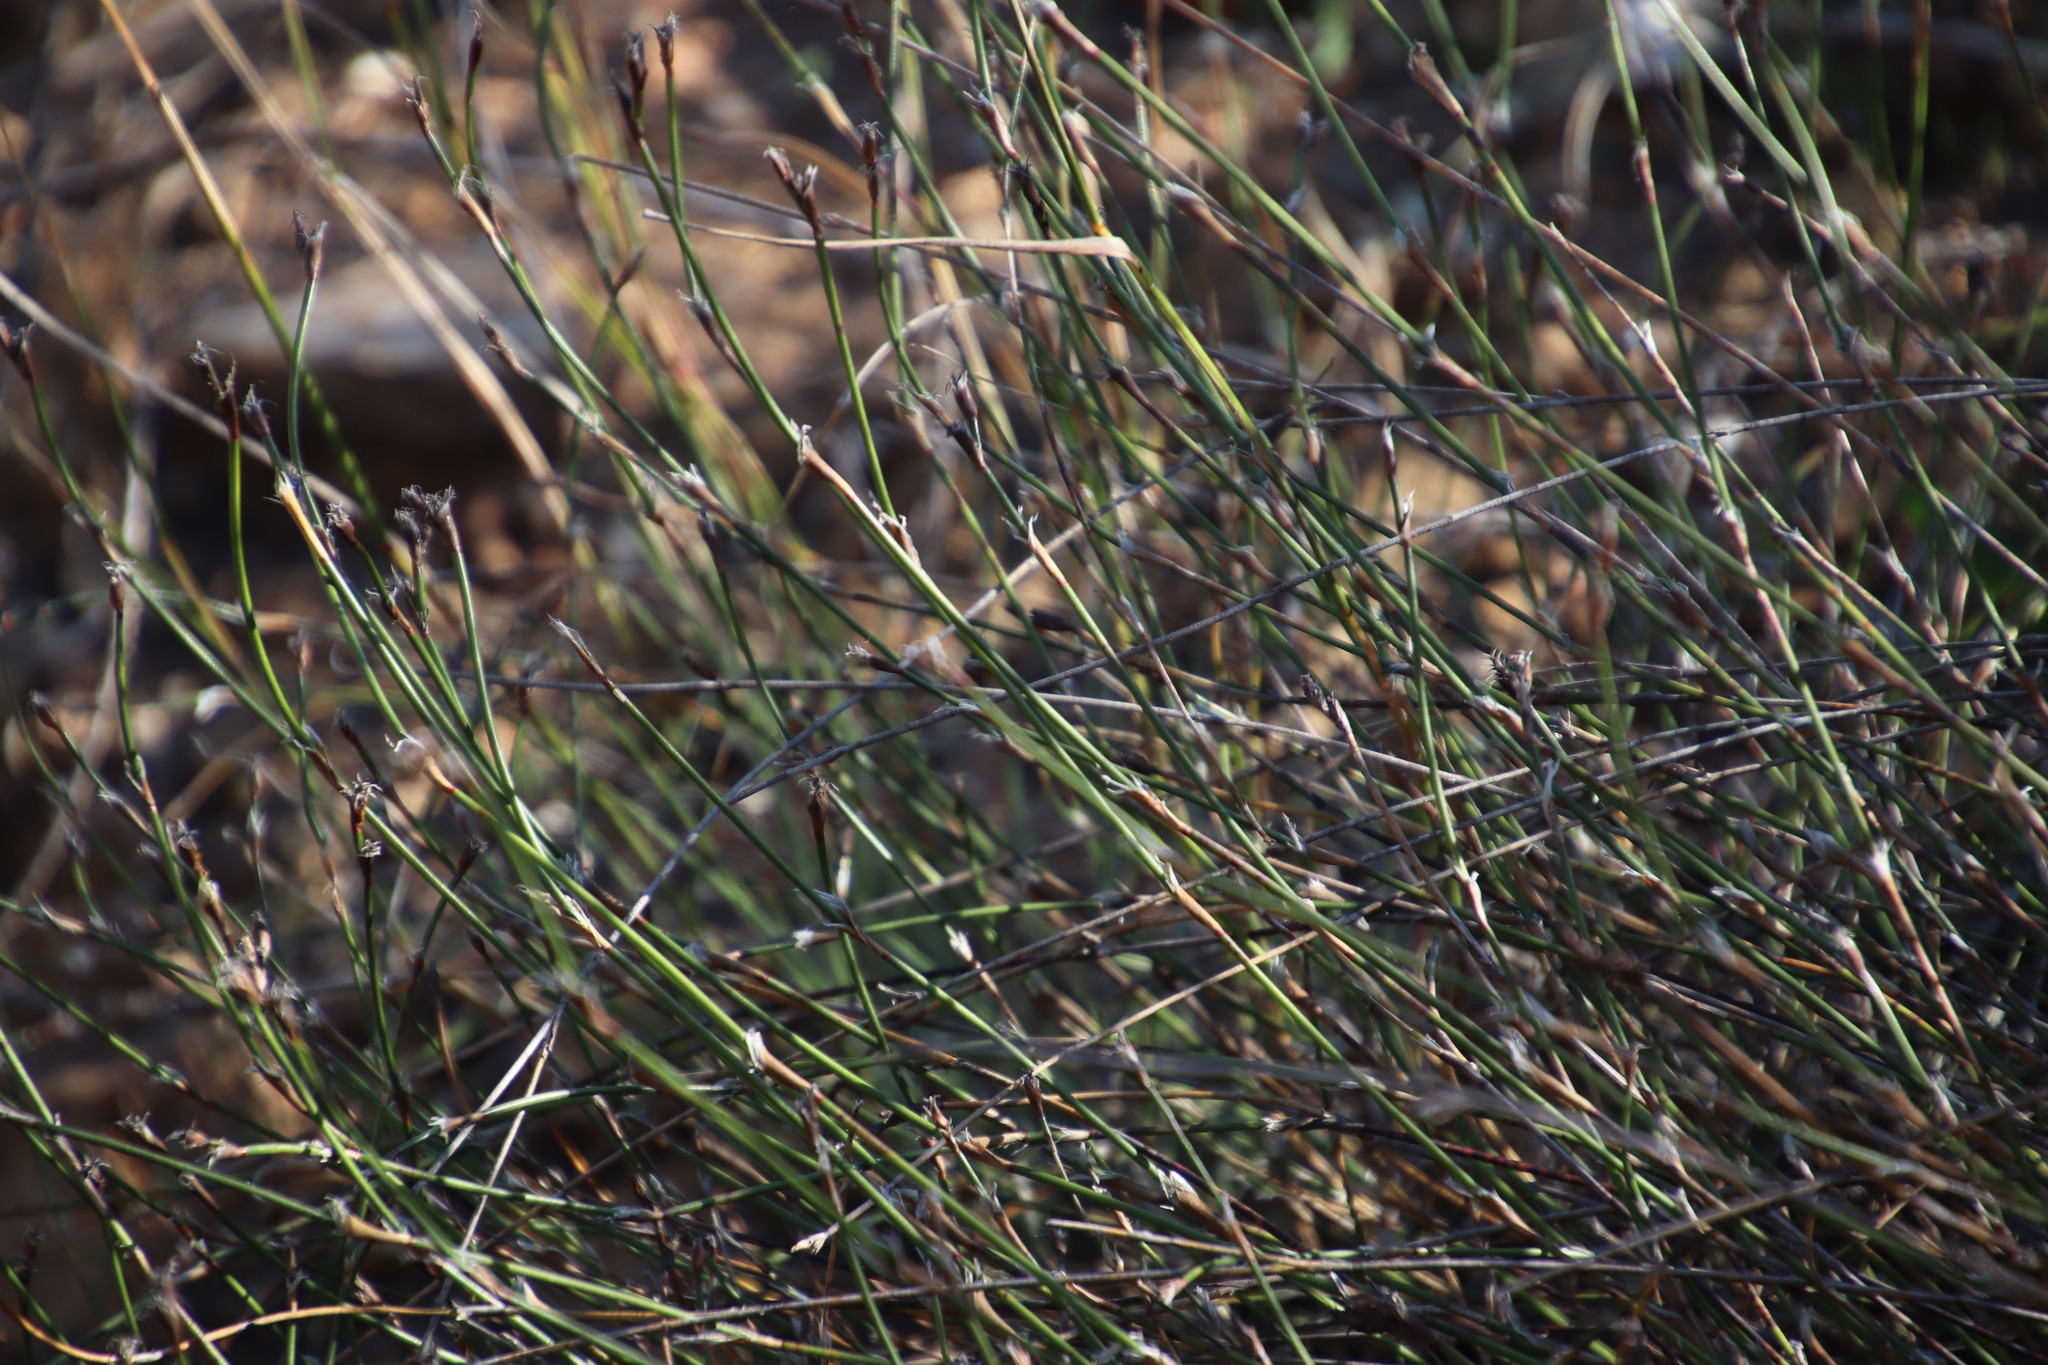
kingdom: Plantae
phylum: Tracheophyta
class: Liliopsida
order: Poales
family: Restionaceae
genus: Restio
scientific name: Restio capensis
